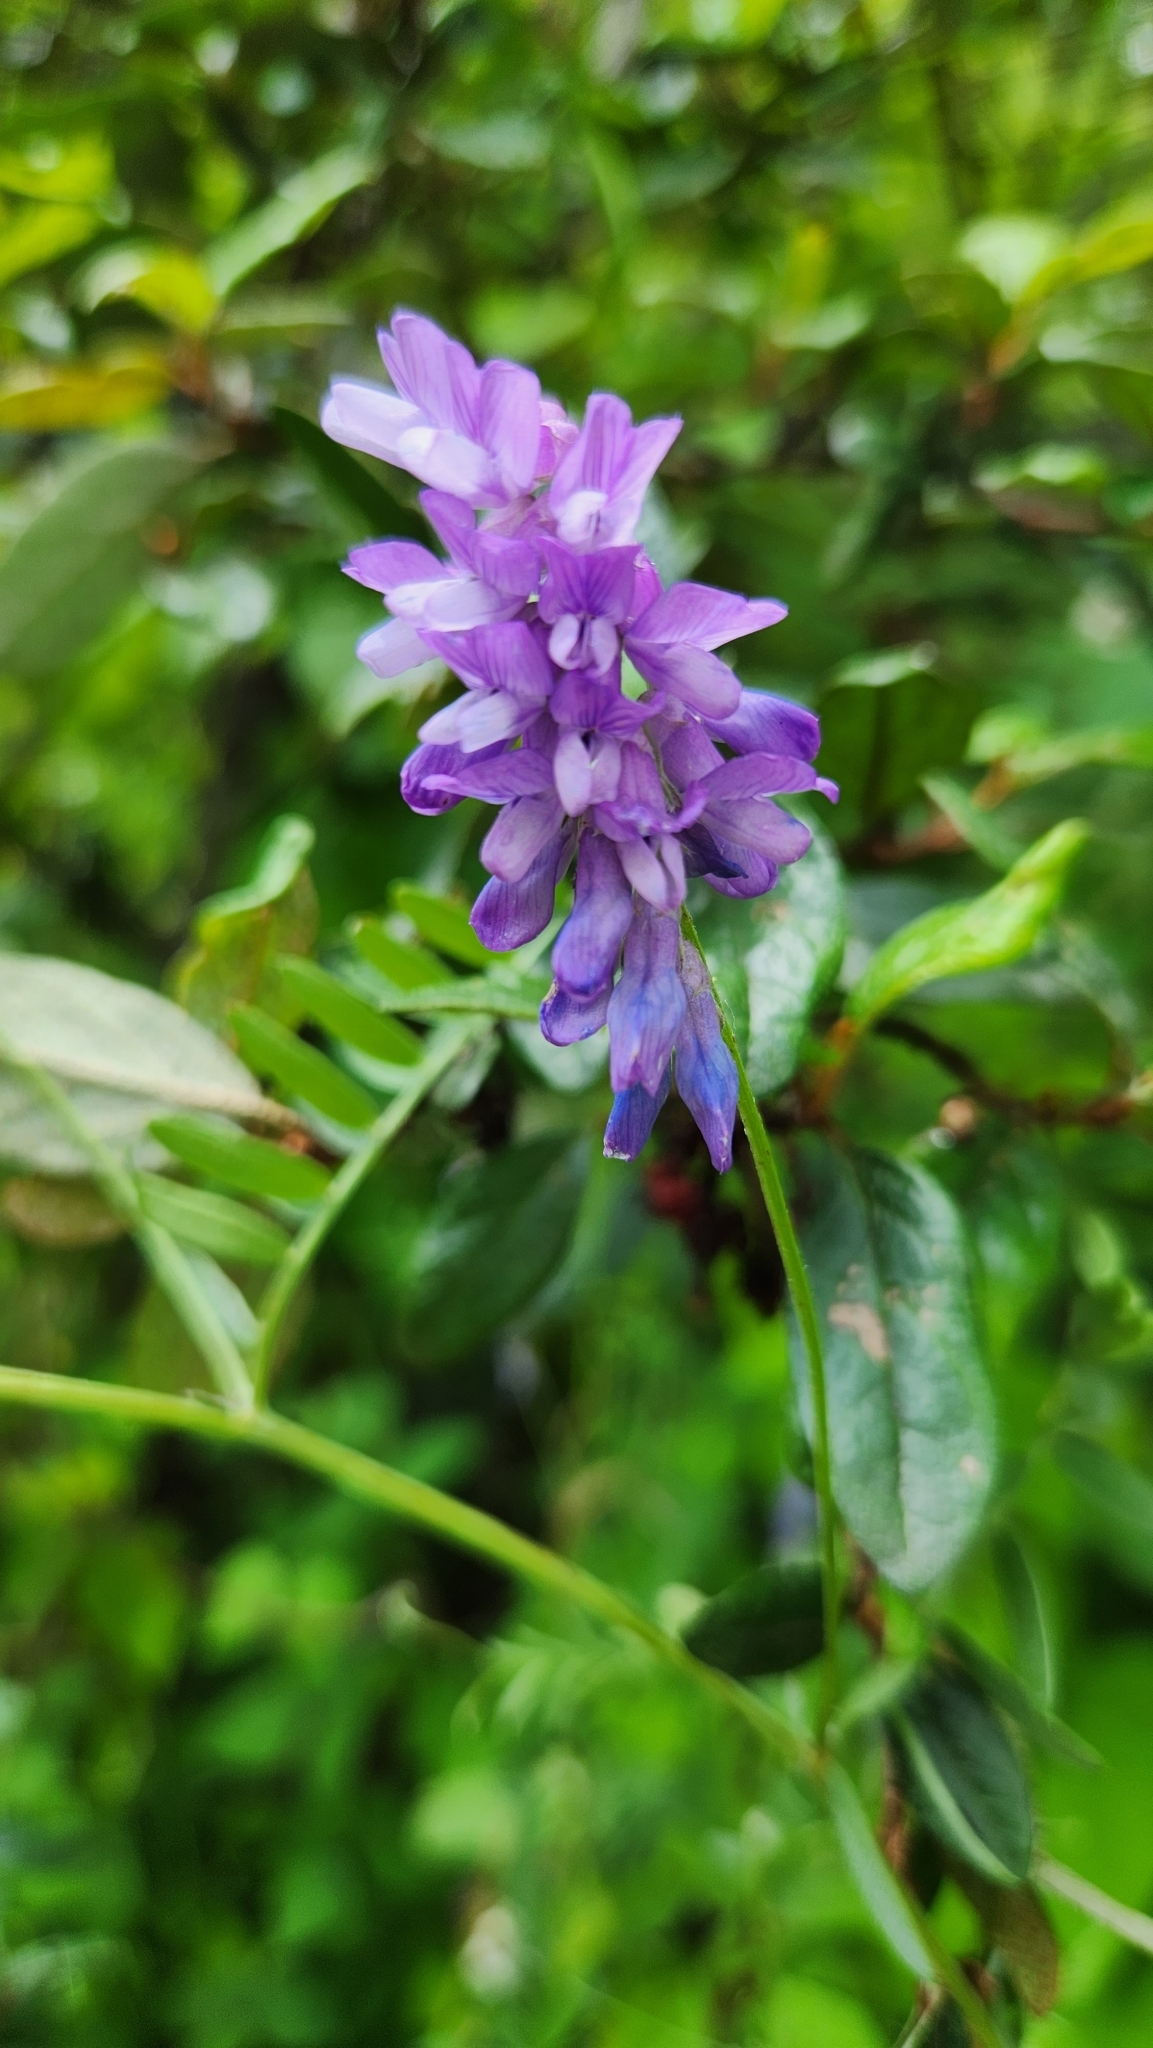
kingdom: Plantae
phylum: Tracheophyta
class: Magnoliopsida
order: Fabales
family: Fabaceae
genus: Vicia
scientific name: Vicia cracca
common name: Bird vetch
